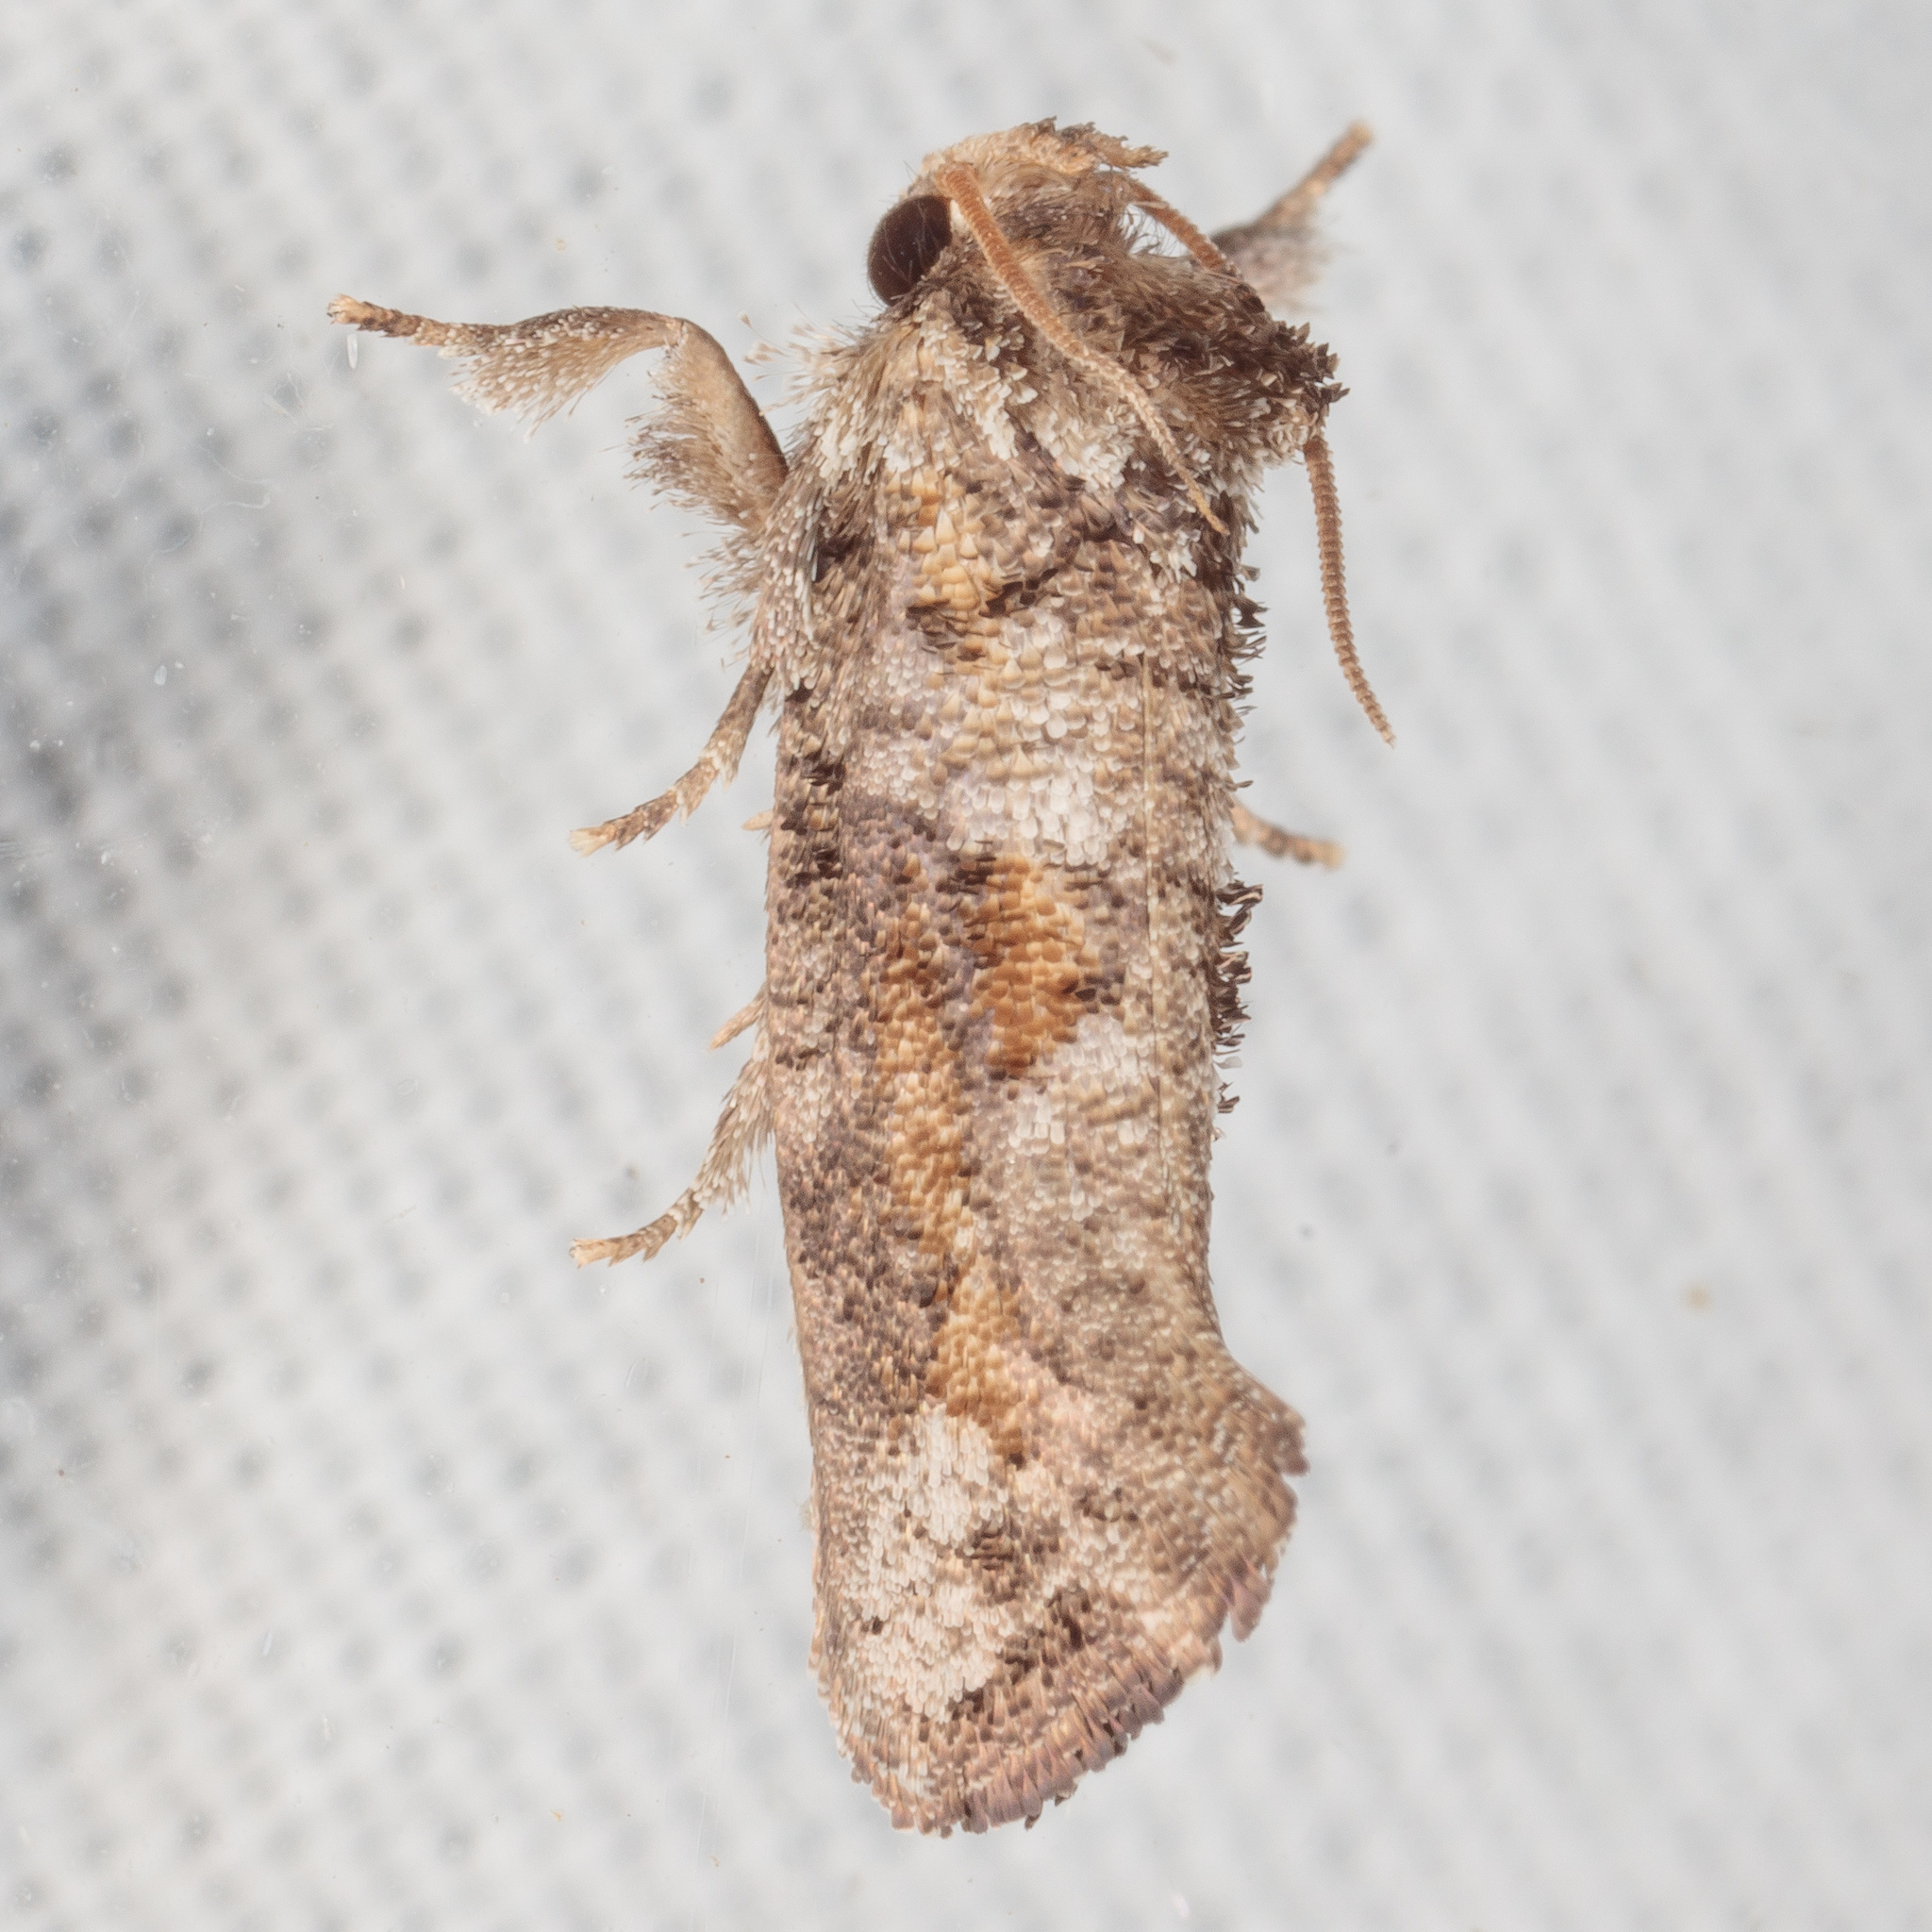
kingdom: Animalia
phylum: Arthropoda
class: Insecta
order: Lepidoptera
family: Tineidae
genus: Acrolophus
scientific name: Acrolophus piger
